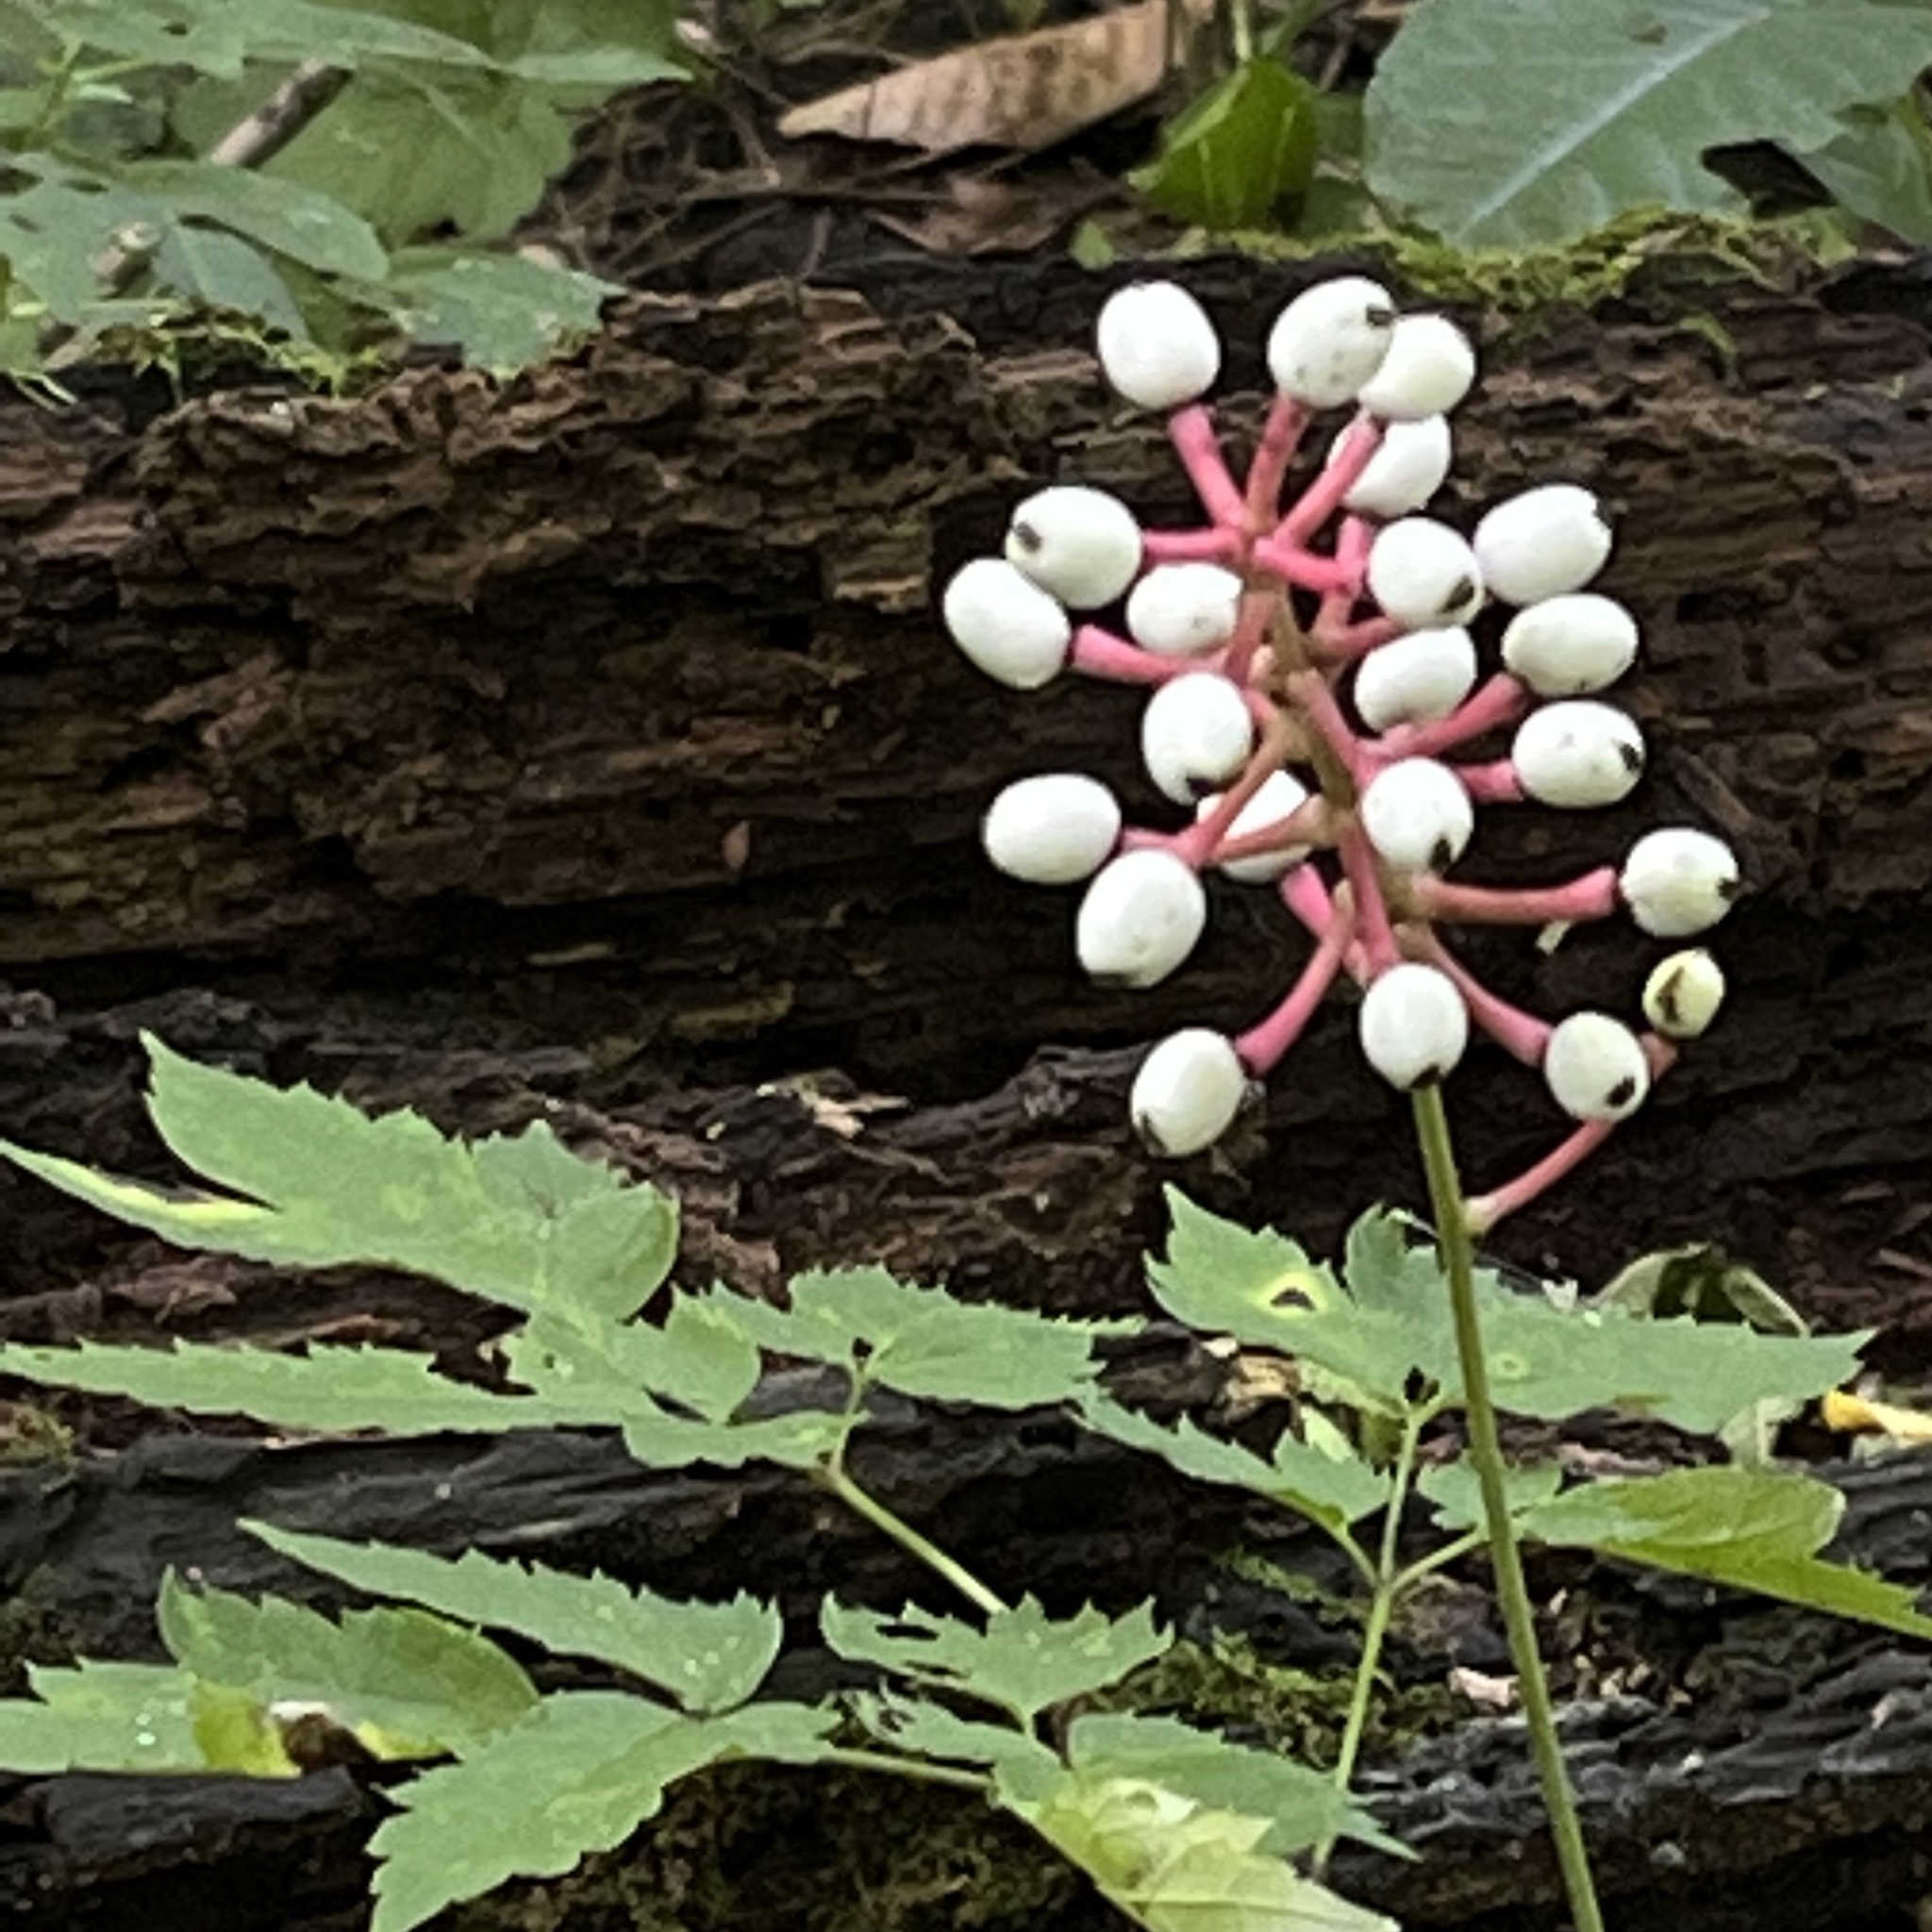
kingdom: Plantae
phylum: Tracheophyta
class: Magnoliopsida
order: Ranunculales
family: Ranunculaceae
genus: Actaea
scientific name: Actaea pachypoda
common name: Doll's-eyes
